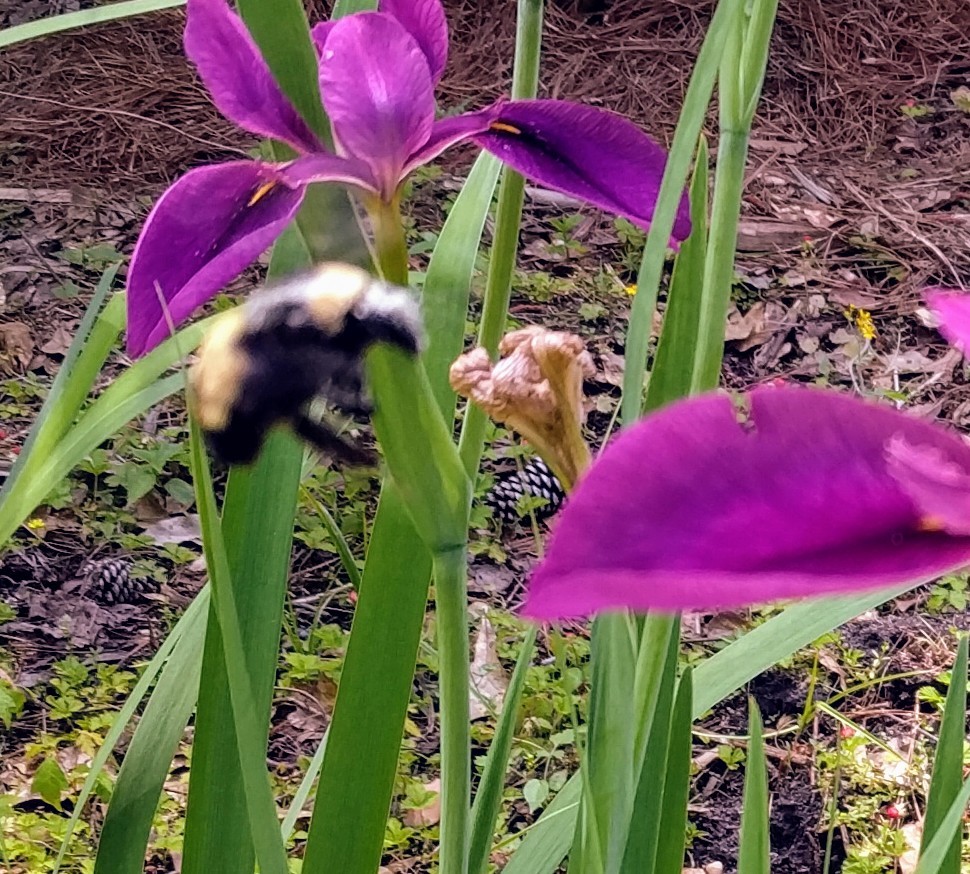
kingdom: Animalia
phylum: Arthropoda
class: Insecta
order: Hymenoptera
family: Apidae
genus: Bombus
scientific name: Bombus pensylvanicus
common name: Bumble bee
